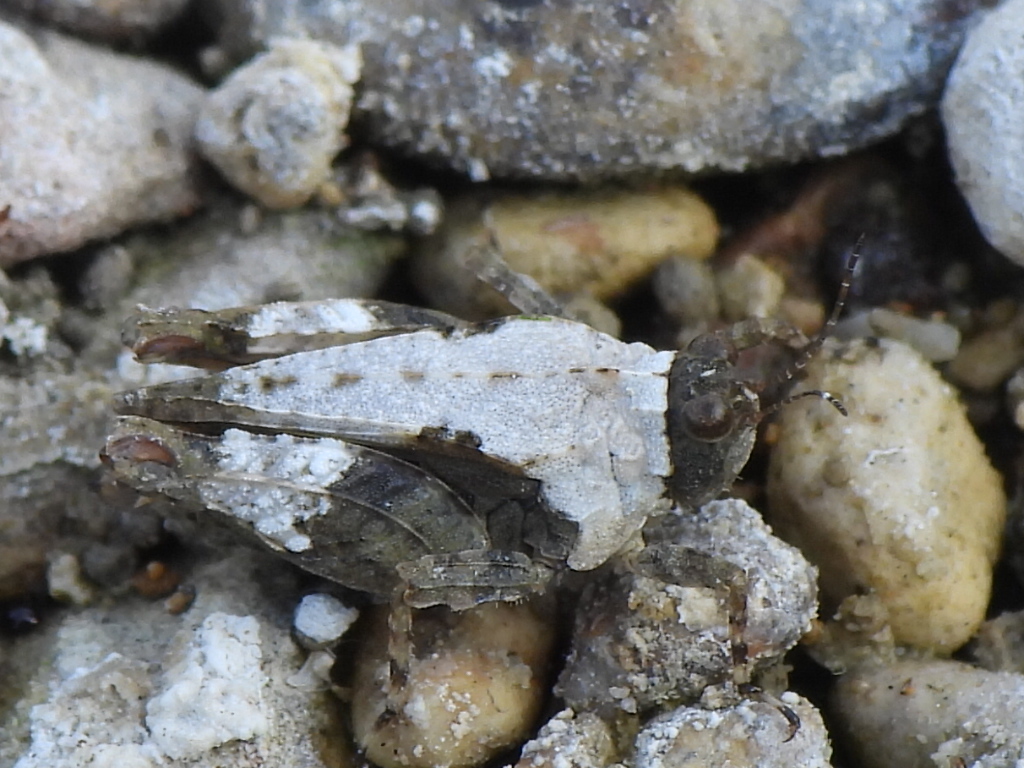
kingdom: Animalia
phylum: Arthropoda
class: Insecta
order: Orthoptera
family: Tetrigidae
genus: Paratettix
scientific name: Paratettix mexicanus
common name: Mexican pygmy grasshopper
